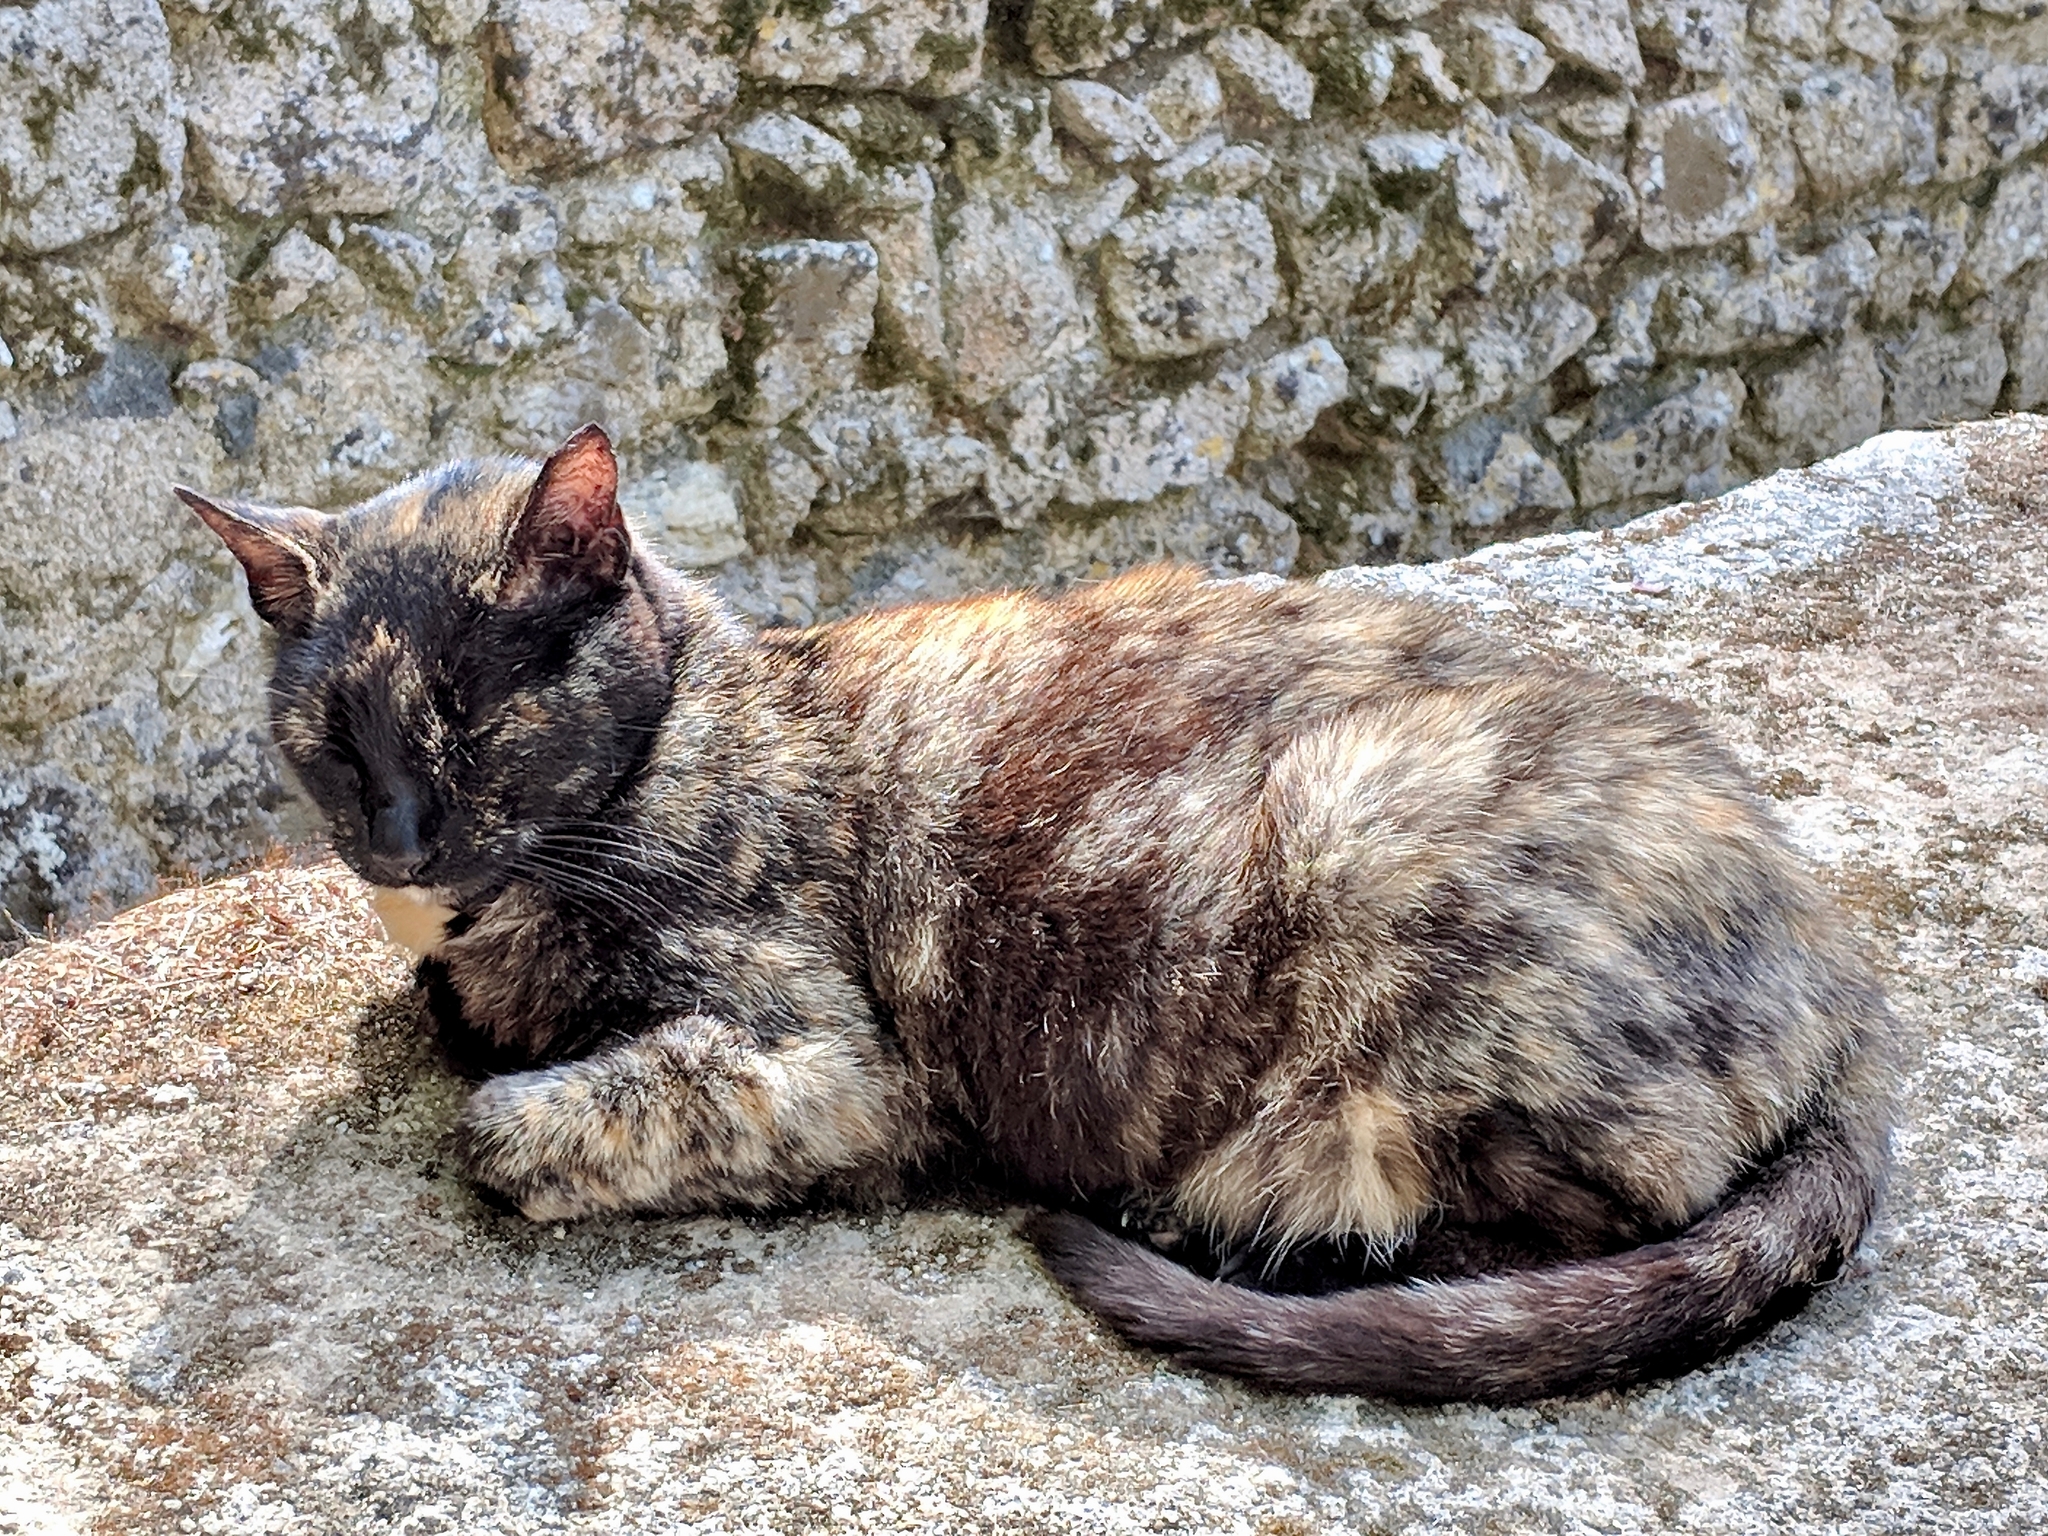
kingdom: Animalia
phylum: Chordata
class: Mammalia
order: Carnivora
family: Felidae
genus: Felis
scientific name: Felis catus
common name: Domestic cat
